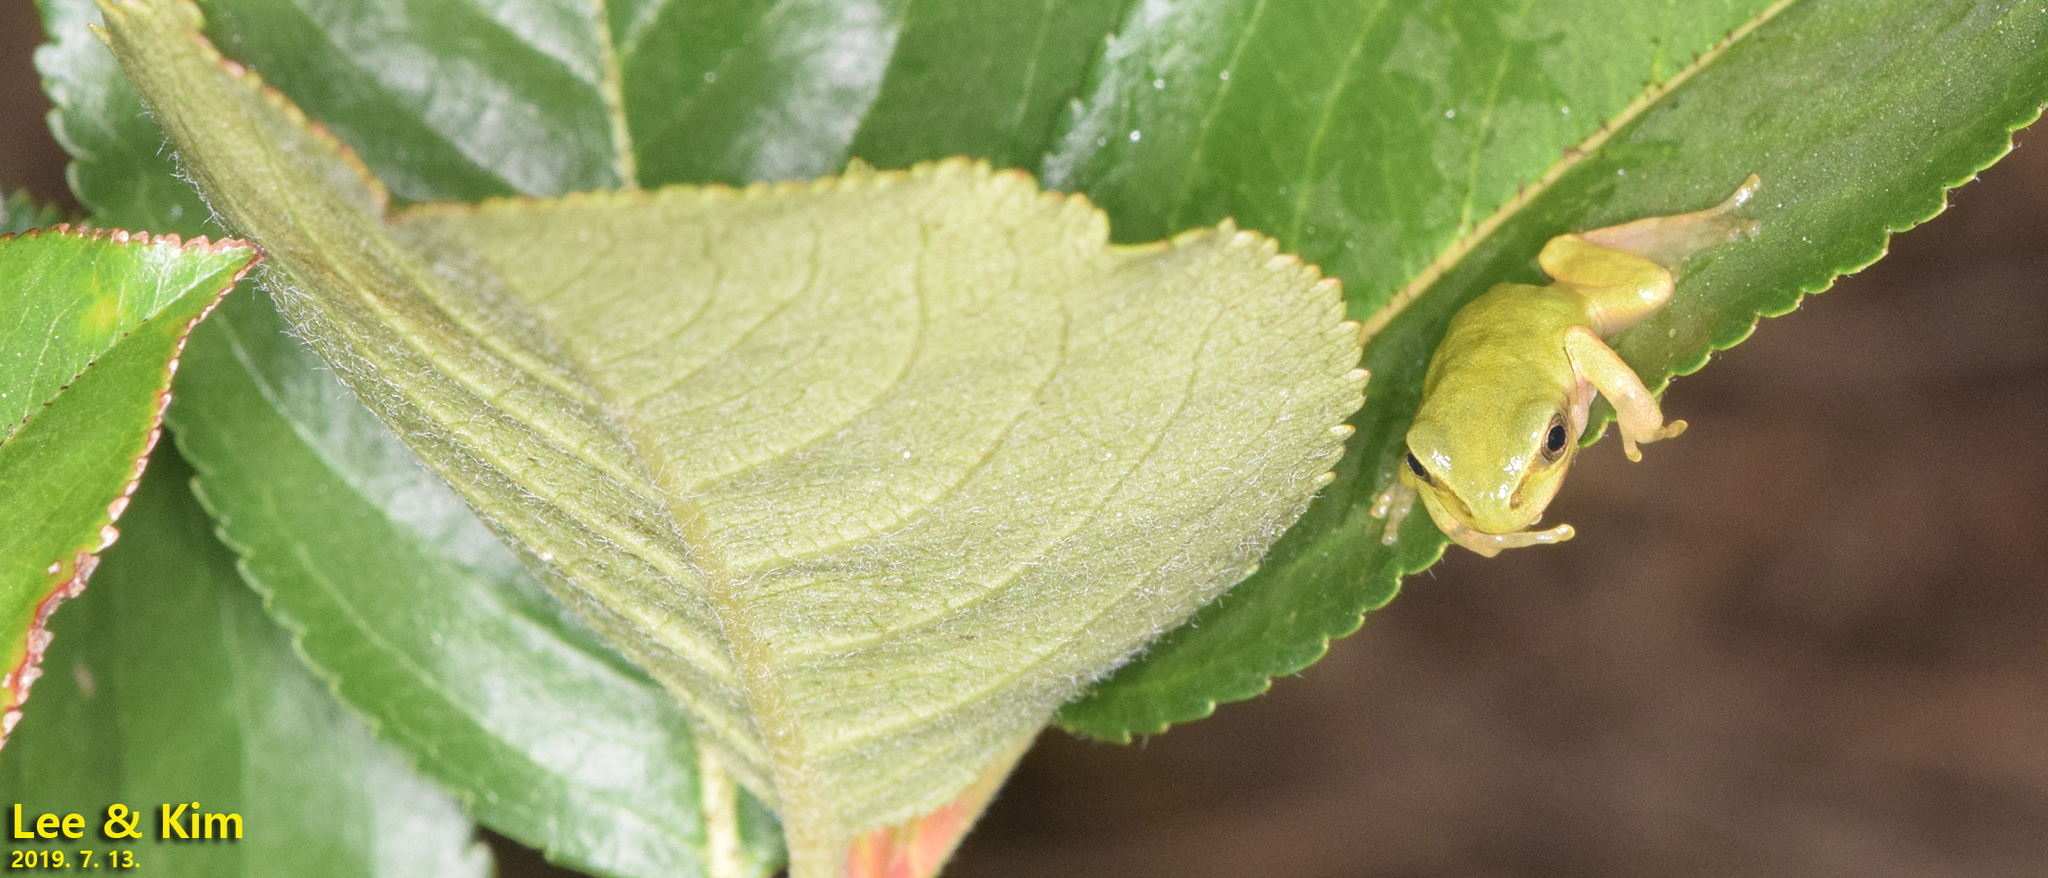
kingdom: Animalia
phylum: Chordata
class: Amphibia
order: Anura
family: Hylidae
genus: Dryophytes
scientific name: Dryophytes japonicus
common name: Japanese treefrog
